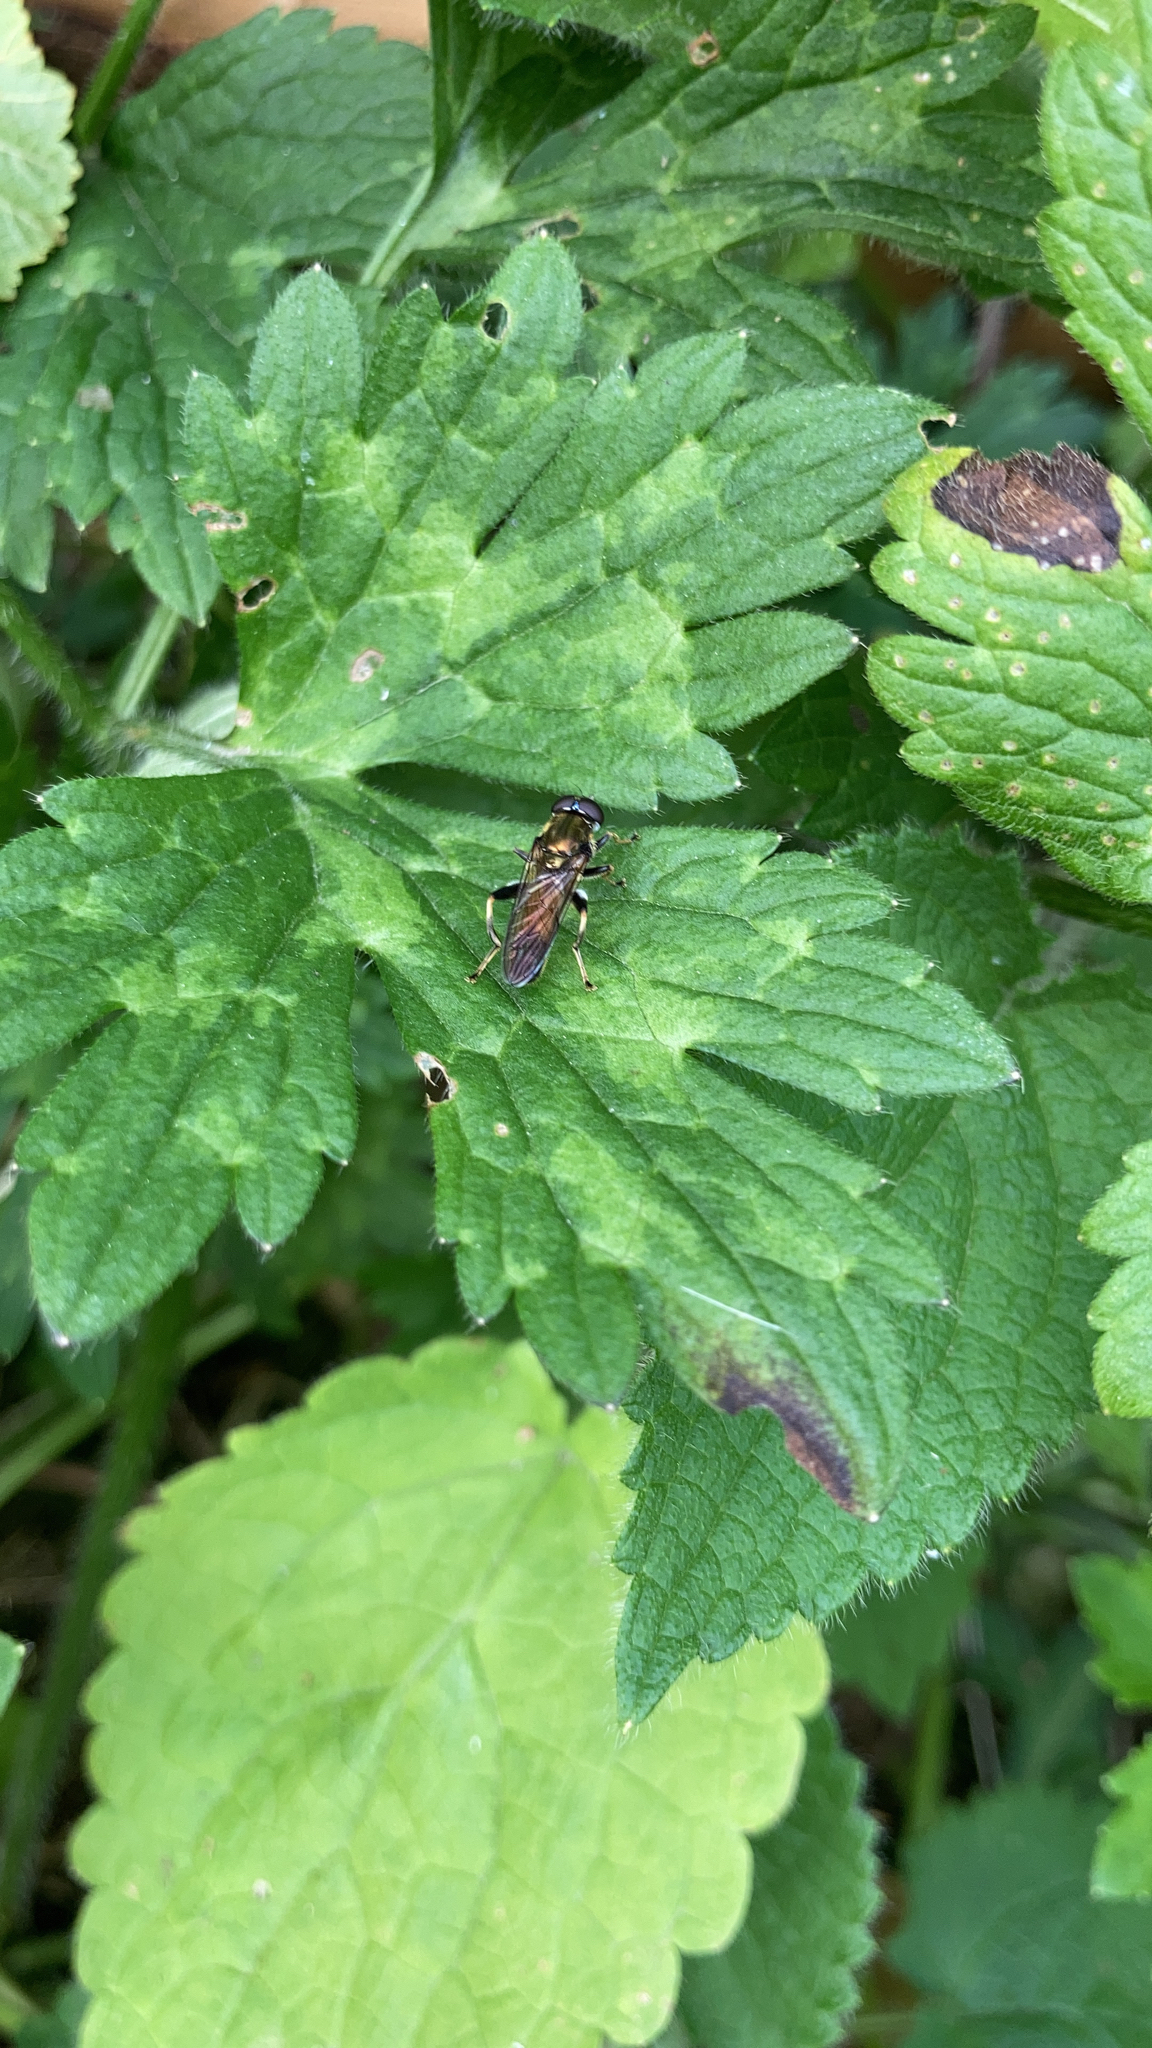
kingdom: Animalia
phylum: Arthropoda
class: Insecta
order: Diptera
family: Syrphidae
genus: Xylota
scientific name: Xylota segnis
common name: Brown-toed forest fly
